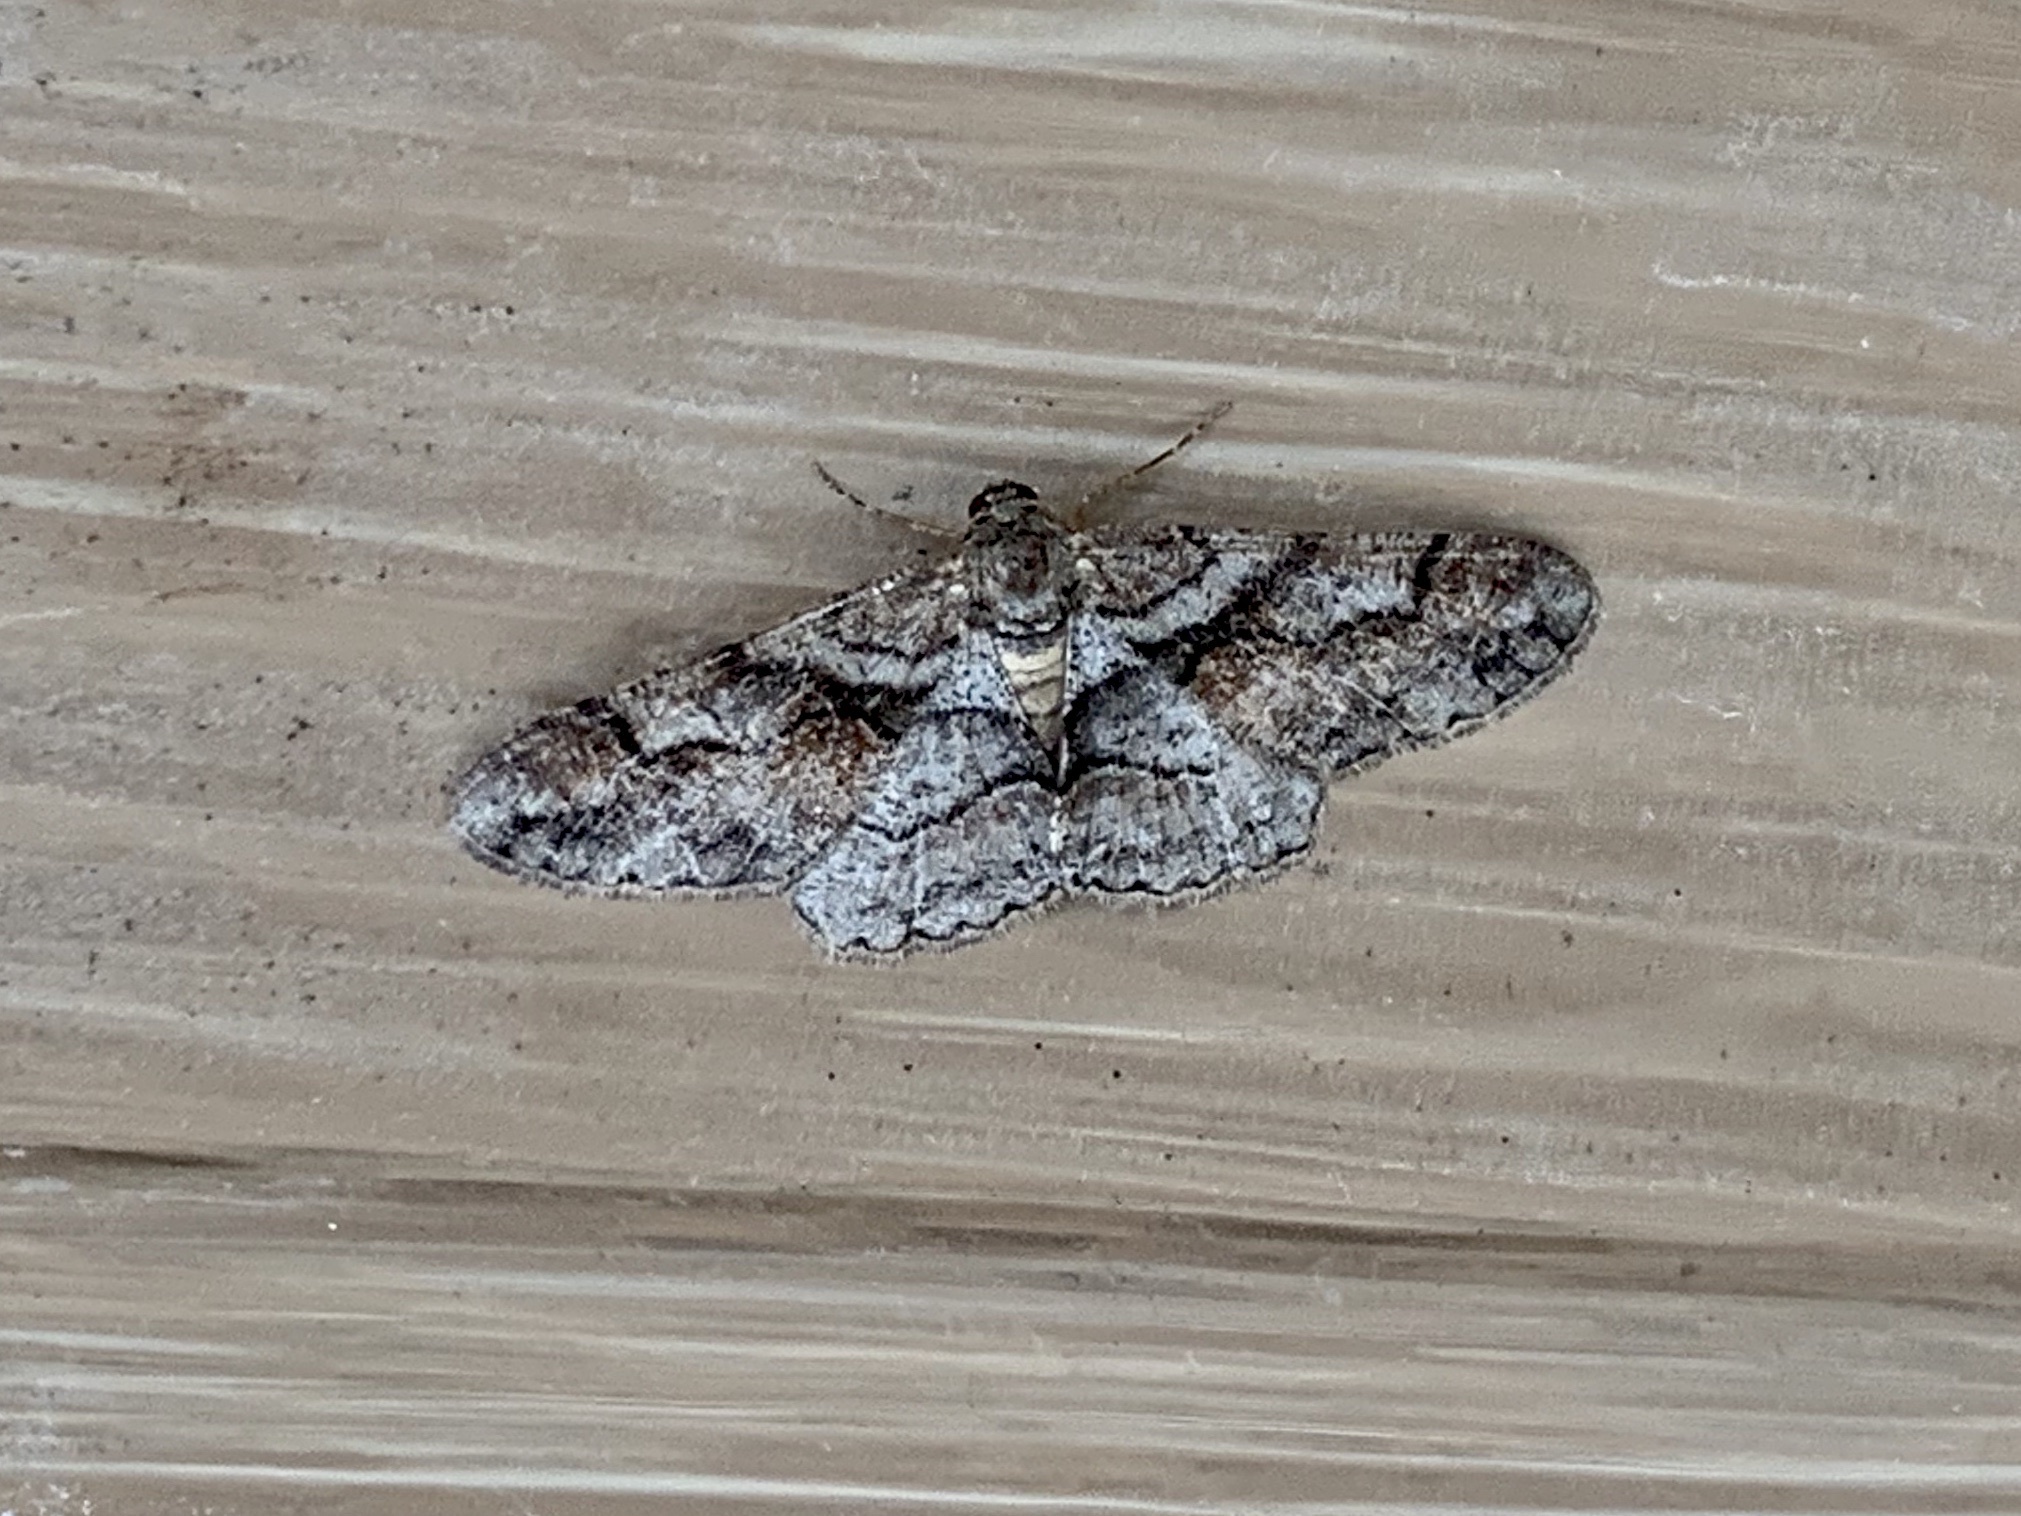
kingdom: Animalia
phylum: Arthropoda
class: Insecta
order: Lepidoptera
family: Geometridae
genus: Mericisca
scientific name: Mericisca gracea
